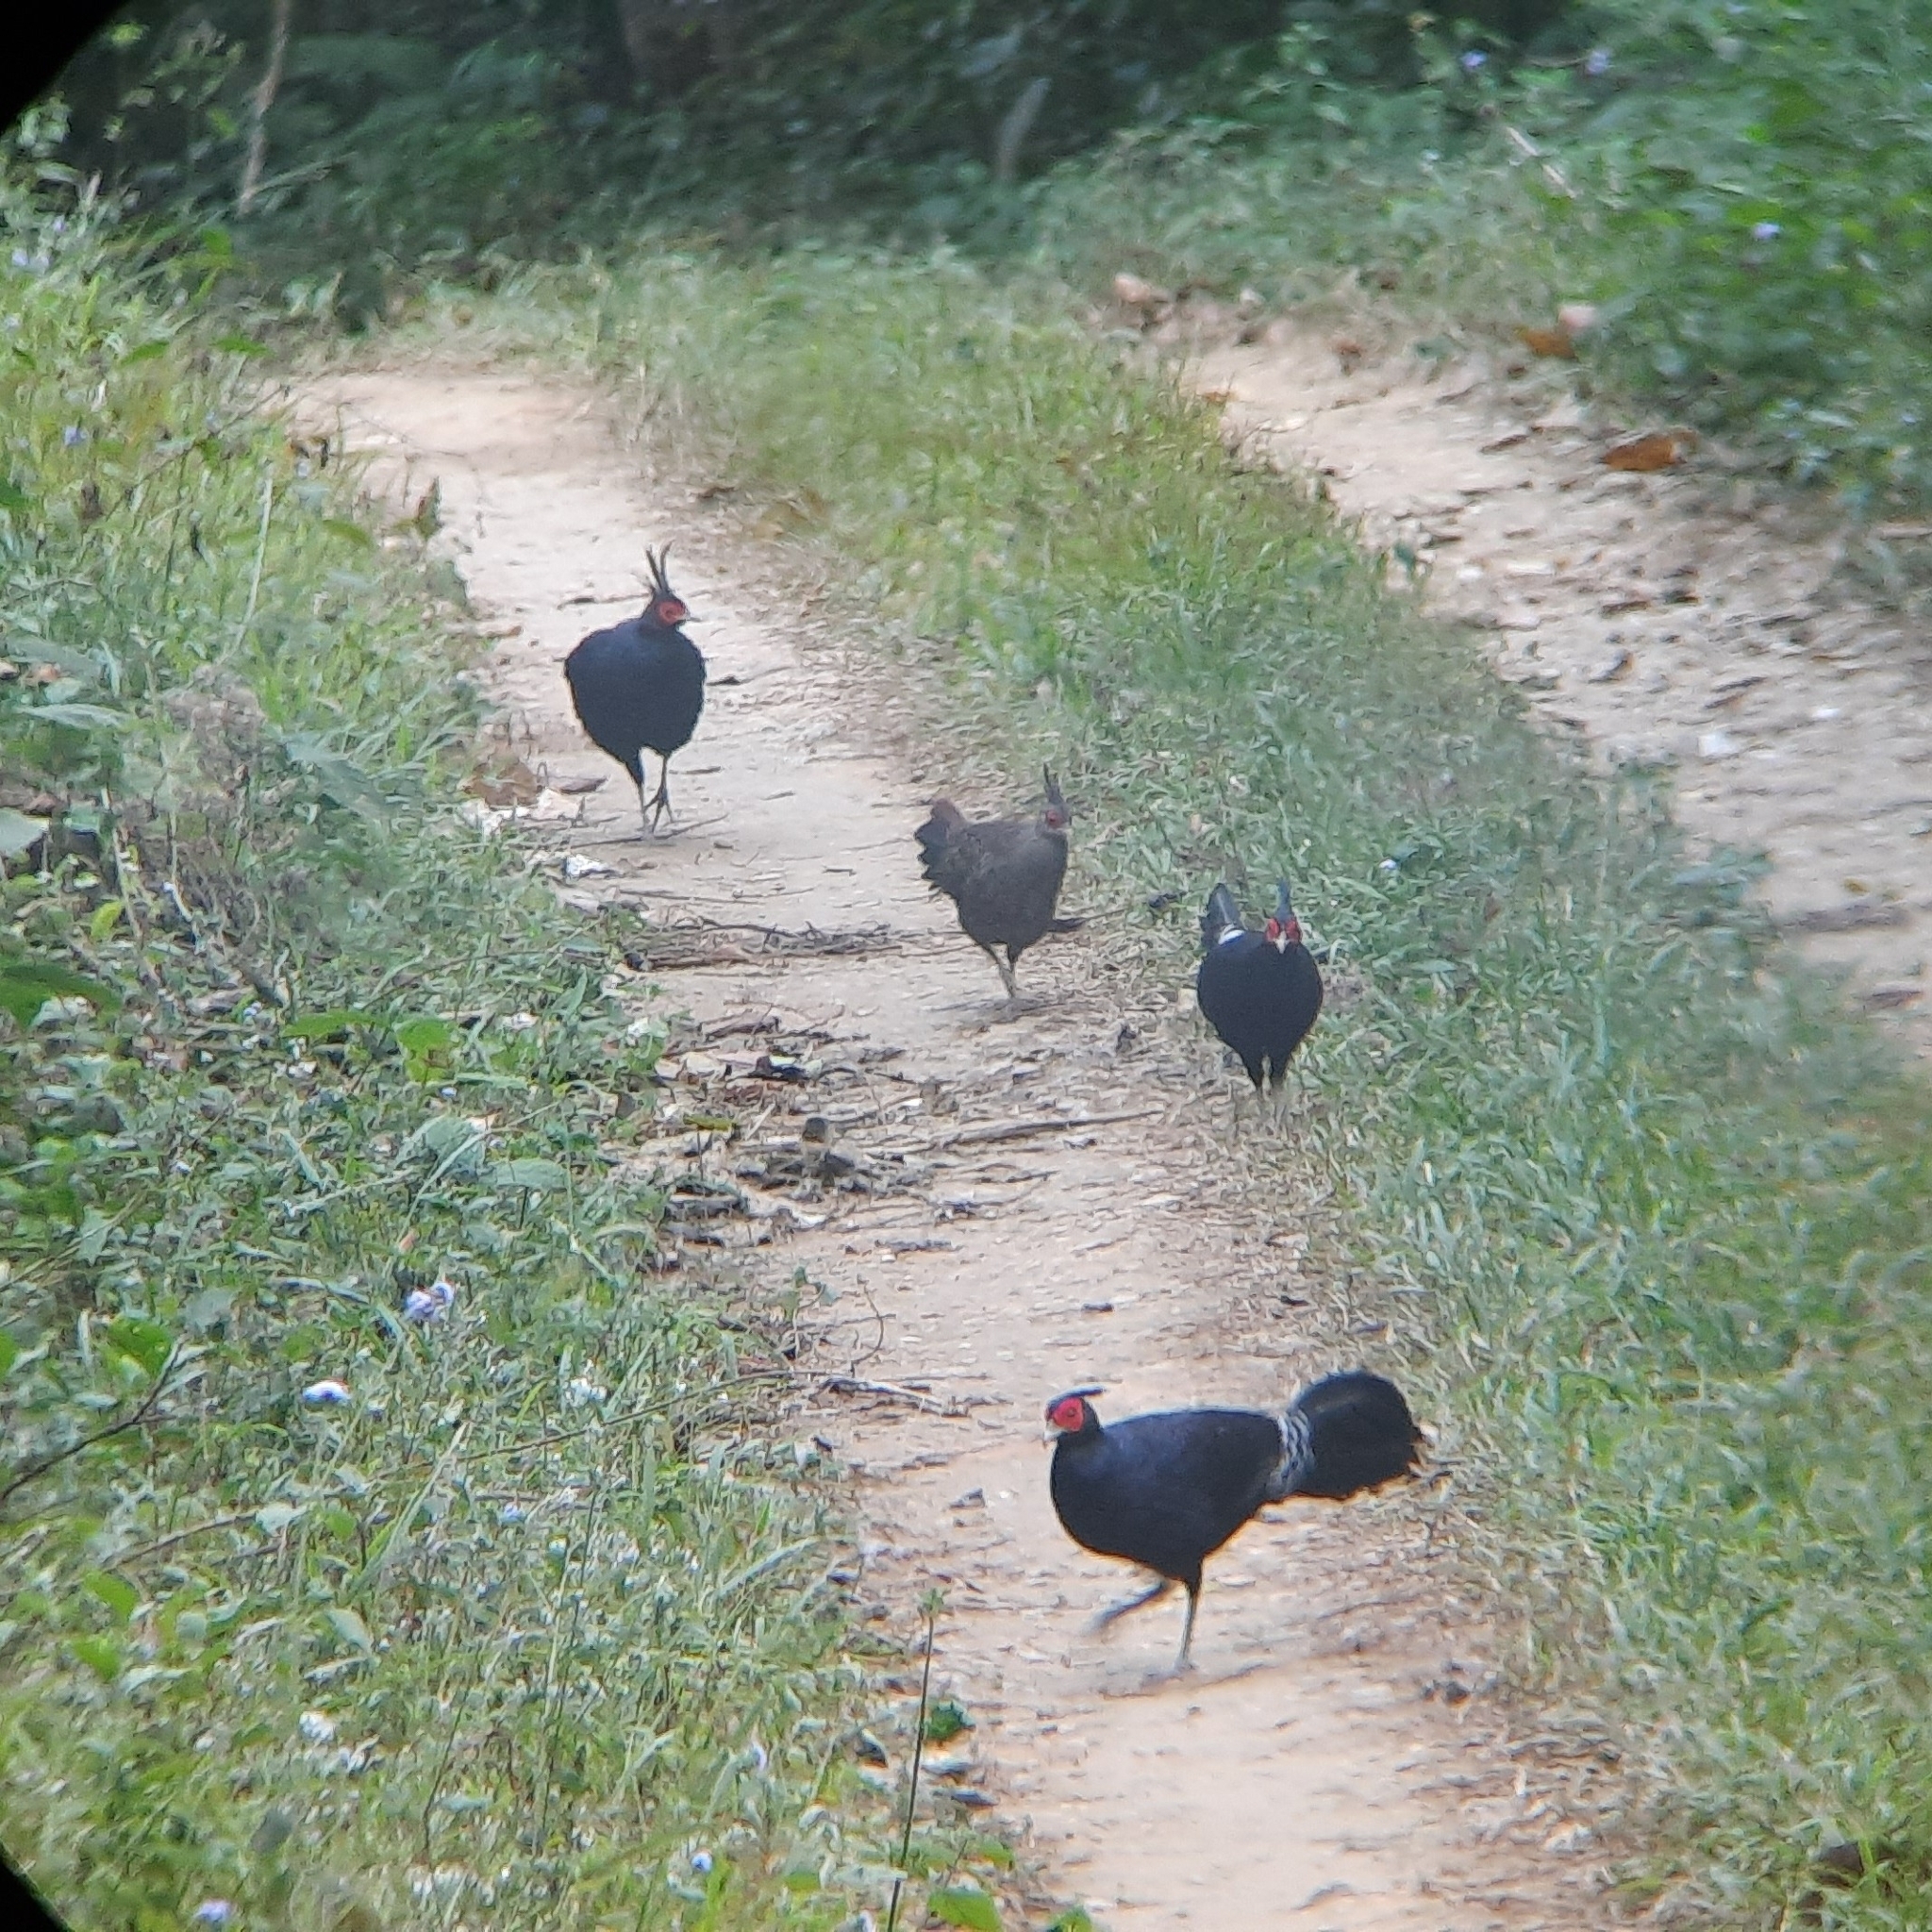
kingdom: Animalia
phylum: Chordata
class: Aves
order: Galliformes
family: Phasianidae
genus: Lophura
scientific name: Lophura leucomelanos
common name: Kalij pheasant
